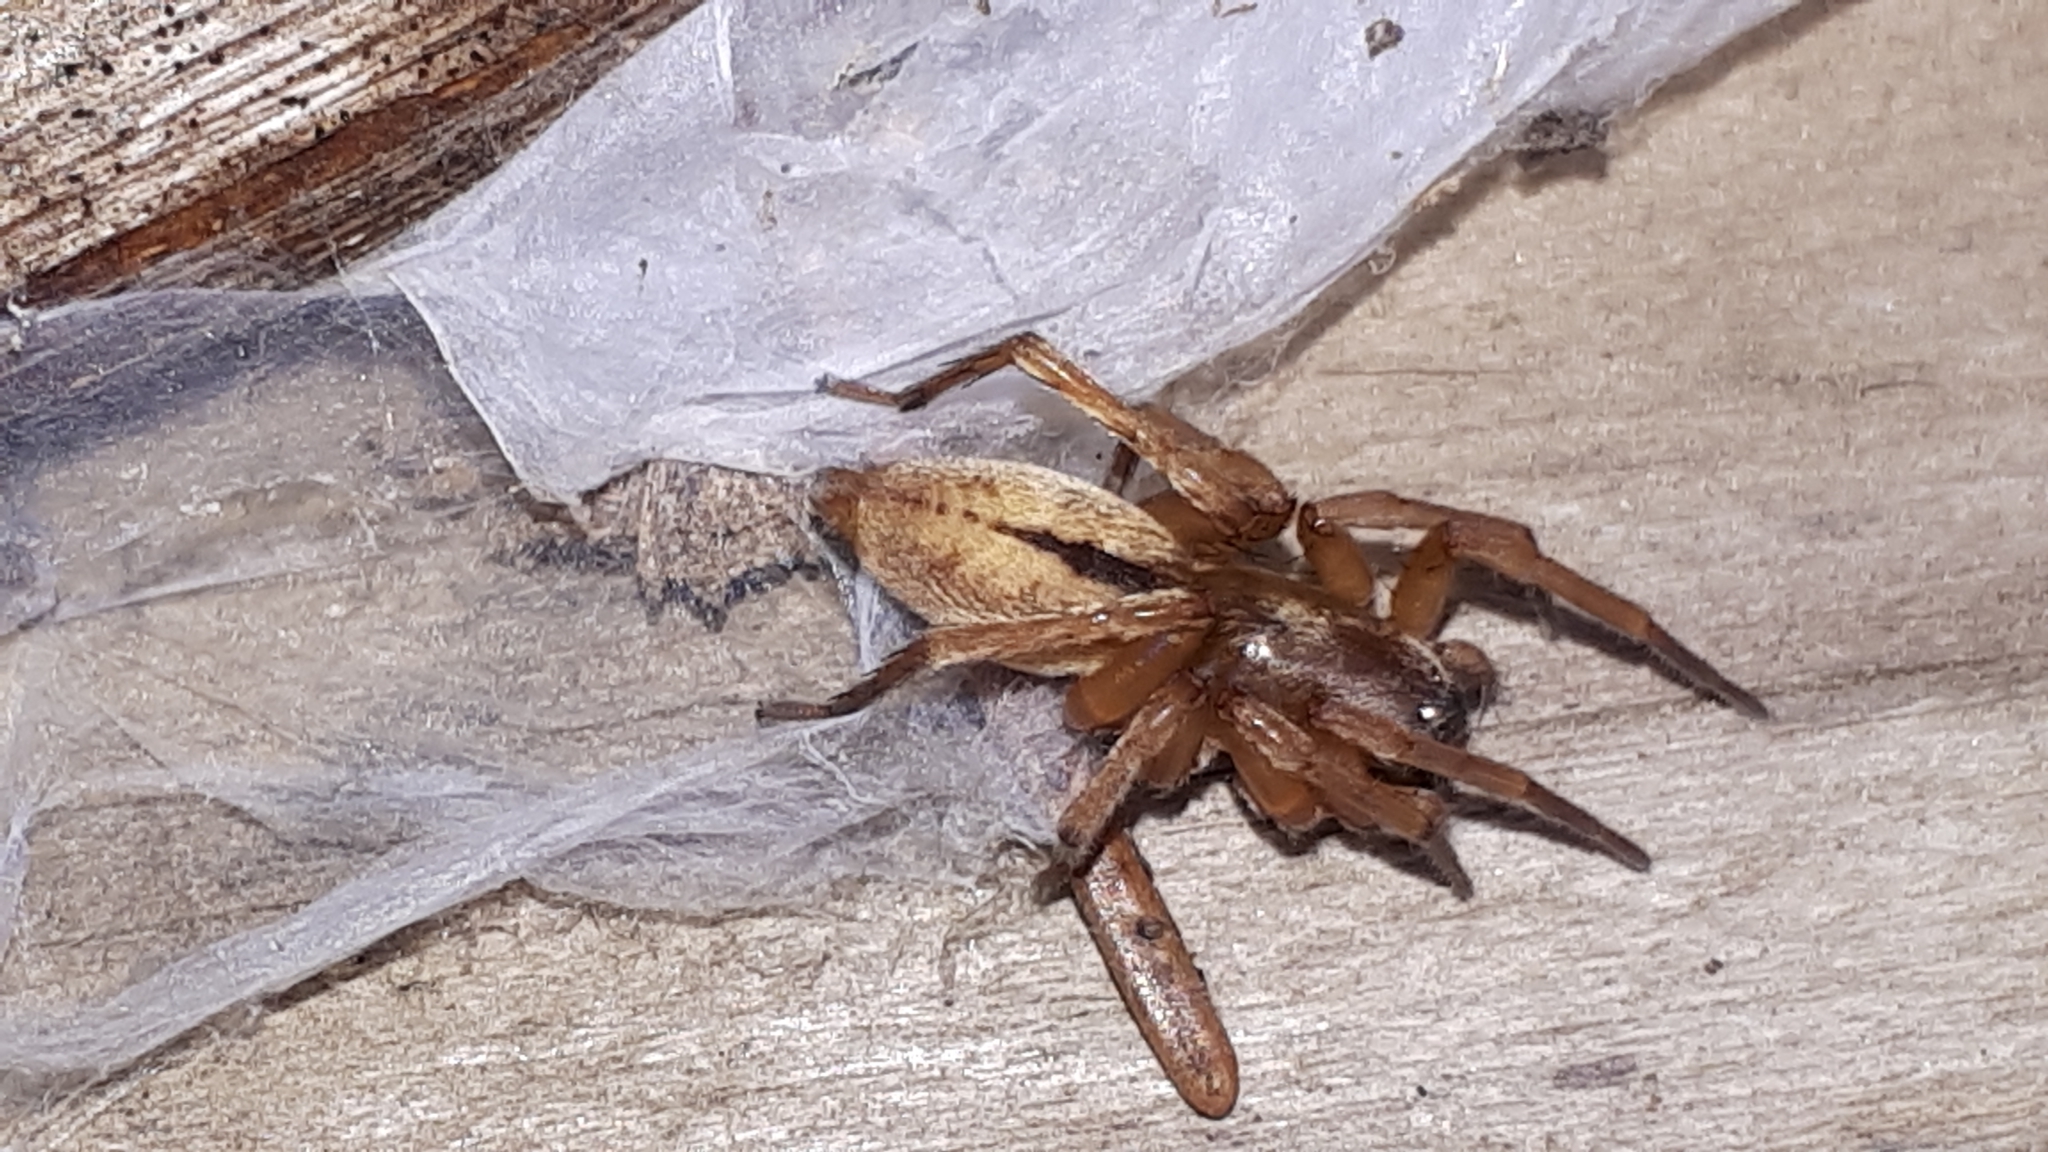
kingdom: Animalia
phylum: Arthropoda
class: Arachnida
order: Araneae
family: Clubionidae
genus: Clubiona
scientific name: Clubiona subsultans
